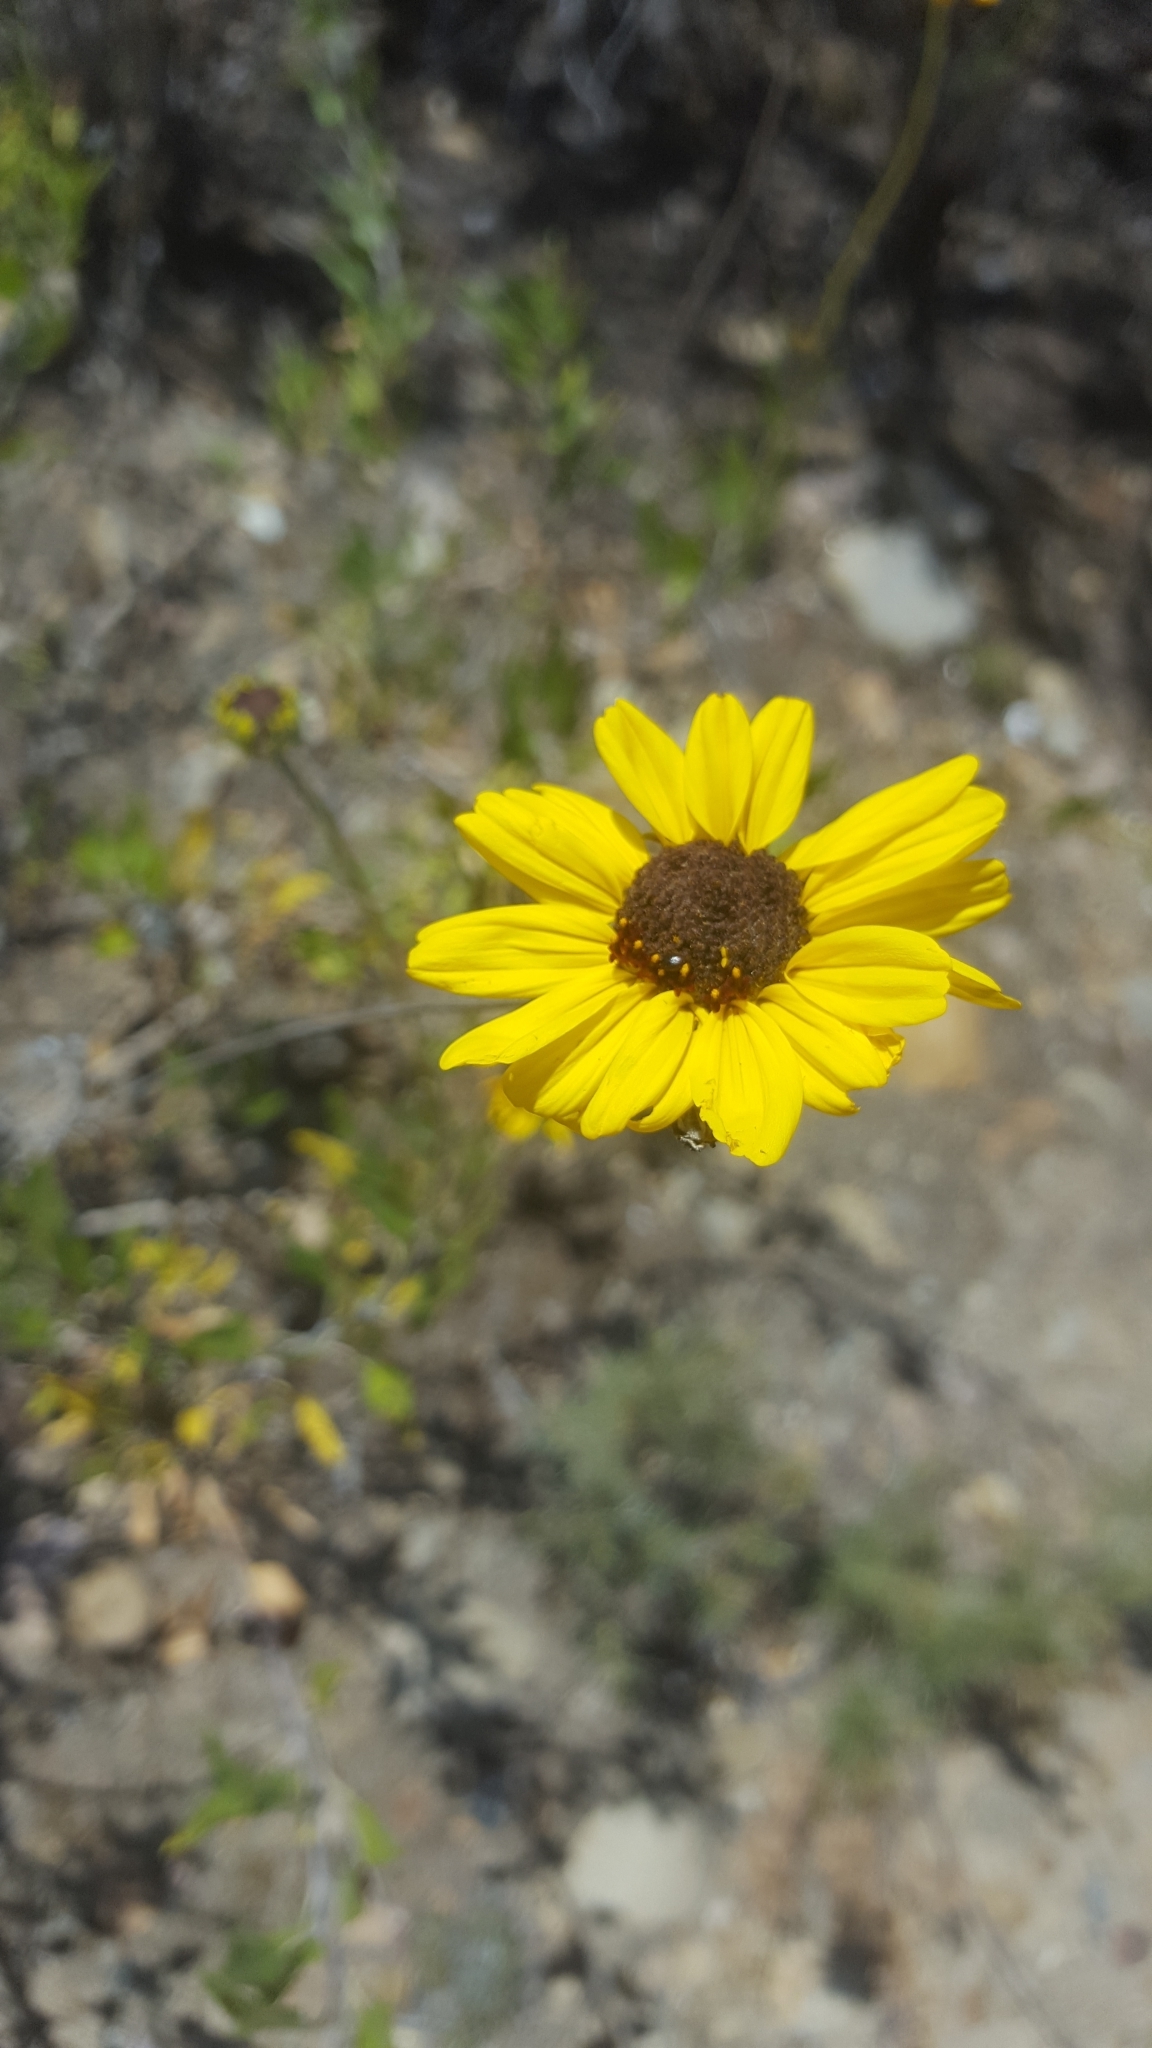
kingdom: Plantae
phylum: Tracheophyta
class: Magnoliopsida
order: Asterales
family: Asteraceae
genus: Encelia
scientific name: Encelia californica
